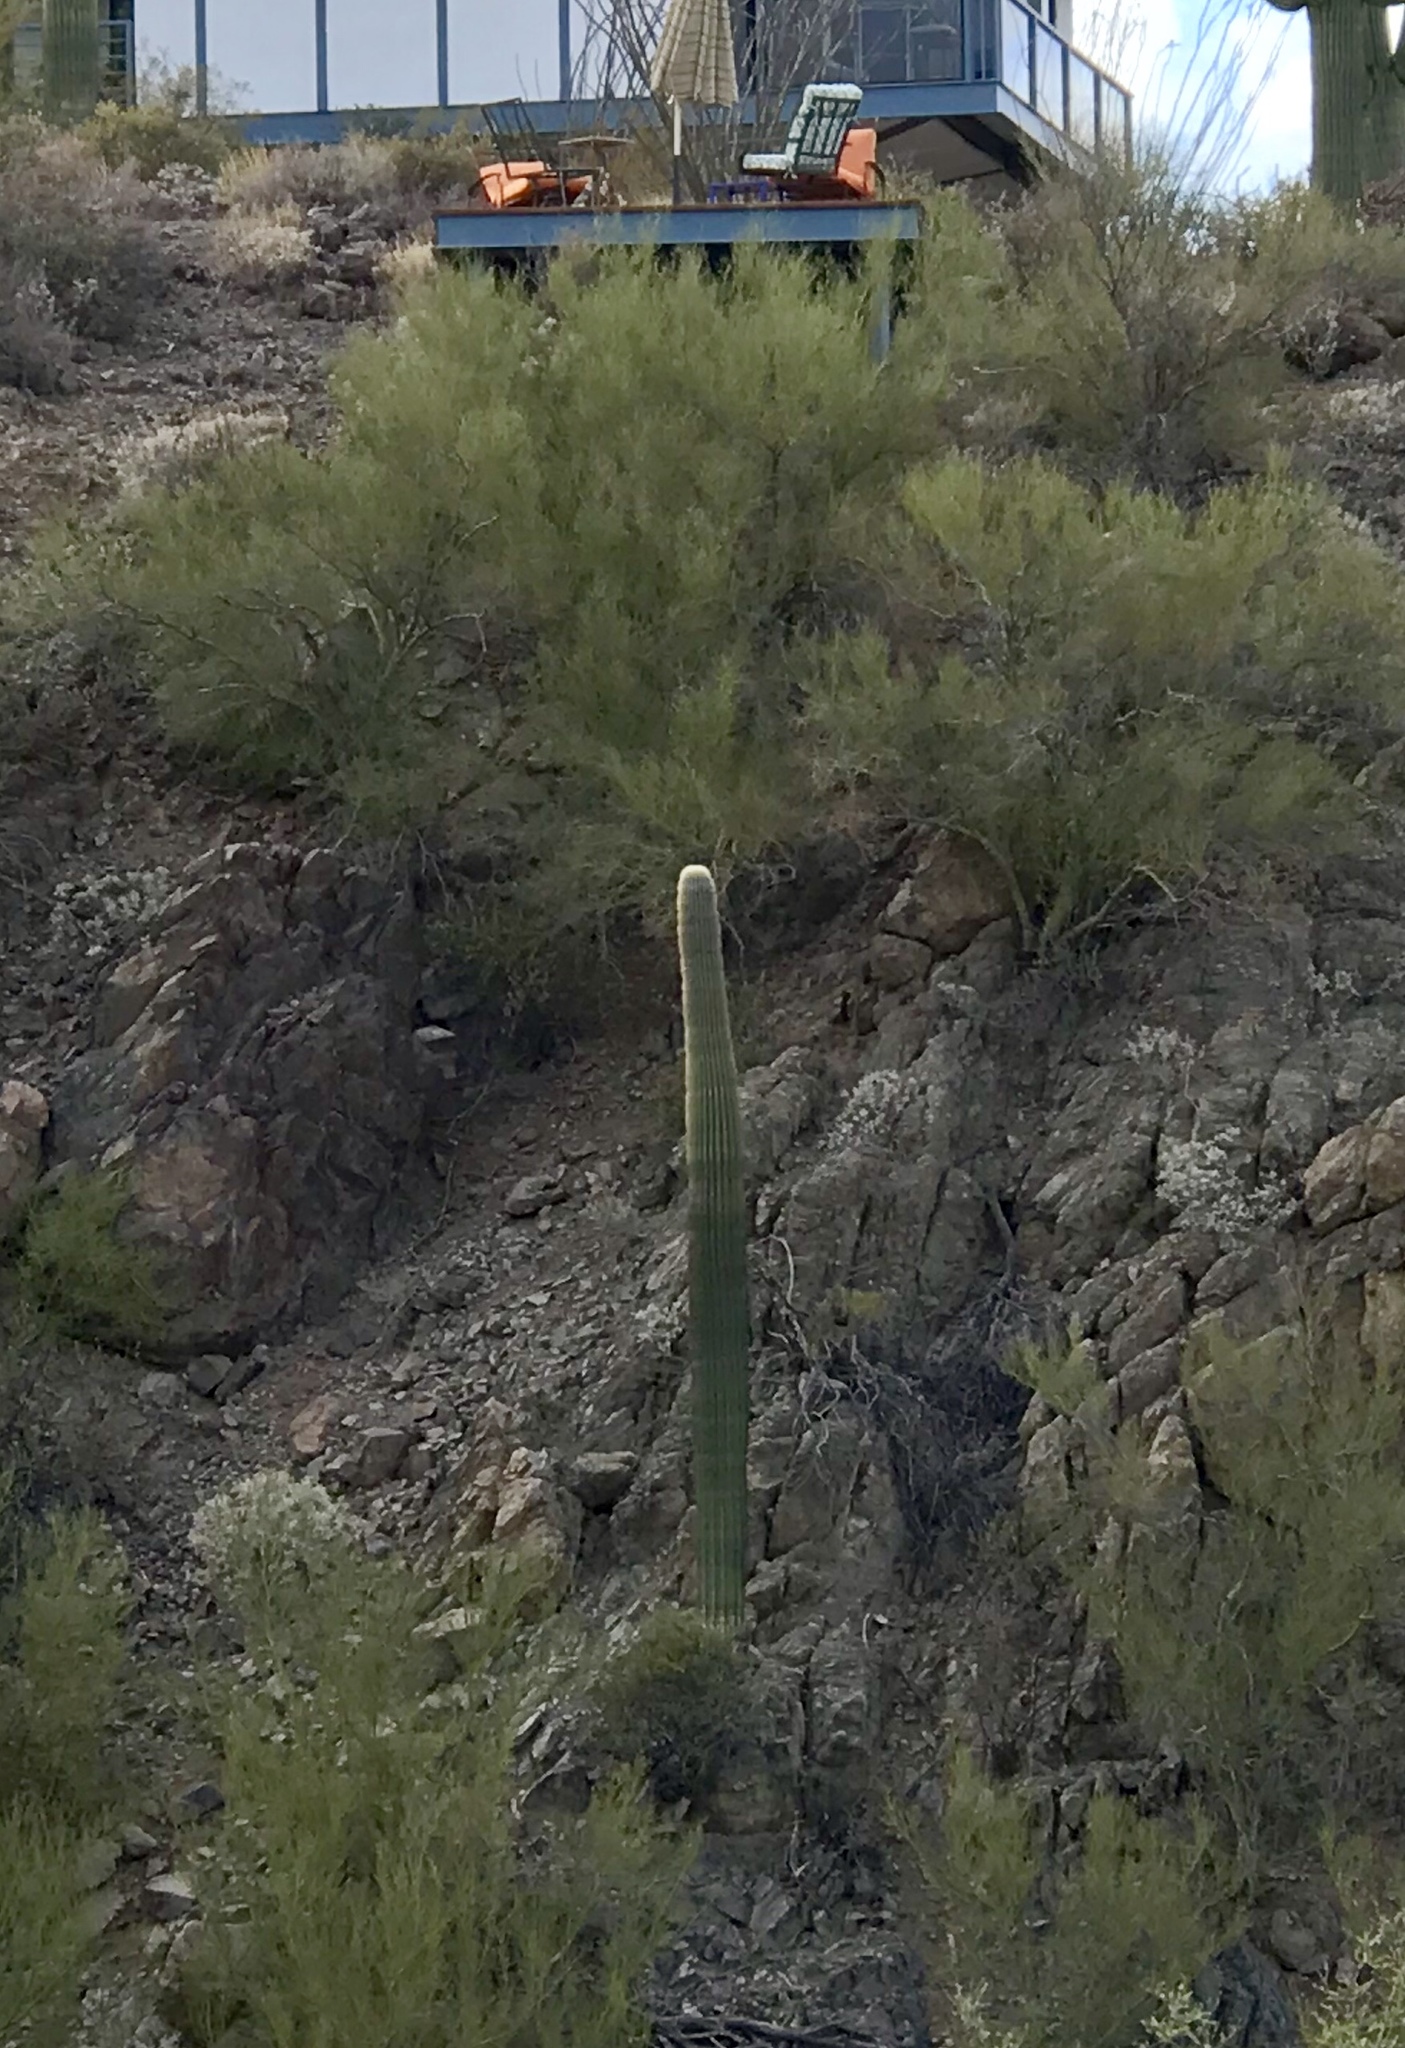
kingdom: Plantae
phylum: Tracheophyta
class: Magnoliopsida
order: Caryophyllales
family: Cactaceae
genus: Carnegiea
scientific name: Carnegiea gigantea
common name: Saguaro
